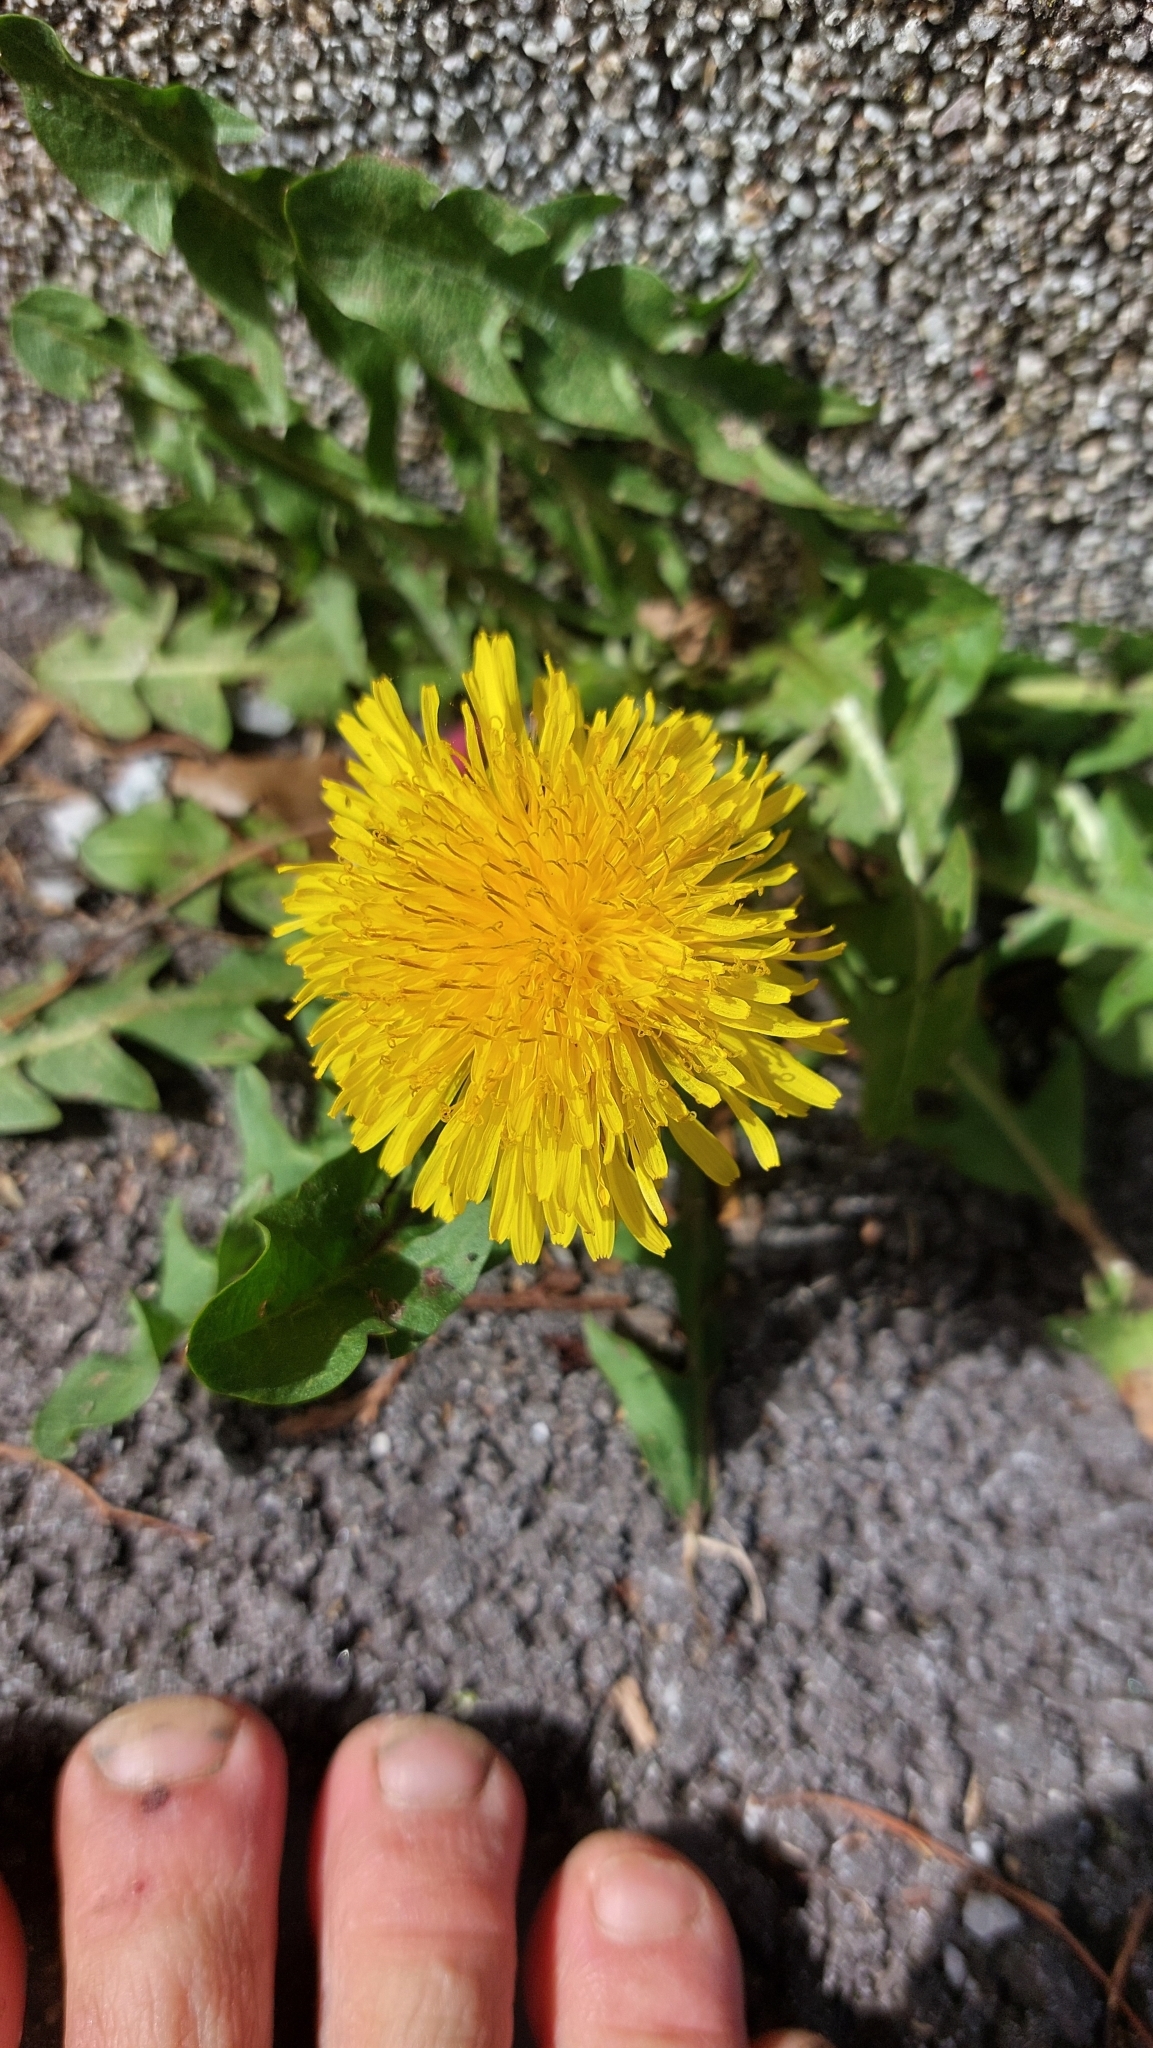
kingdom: Plantae
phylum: Tracheophyta
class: Magnoliopsida
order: Asterales
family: Asteraceae
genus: Taraxacum
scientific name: Taraxacum
